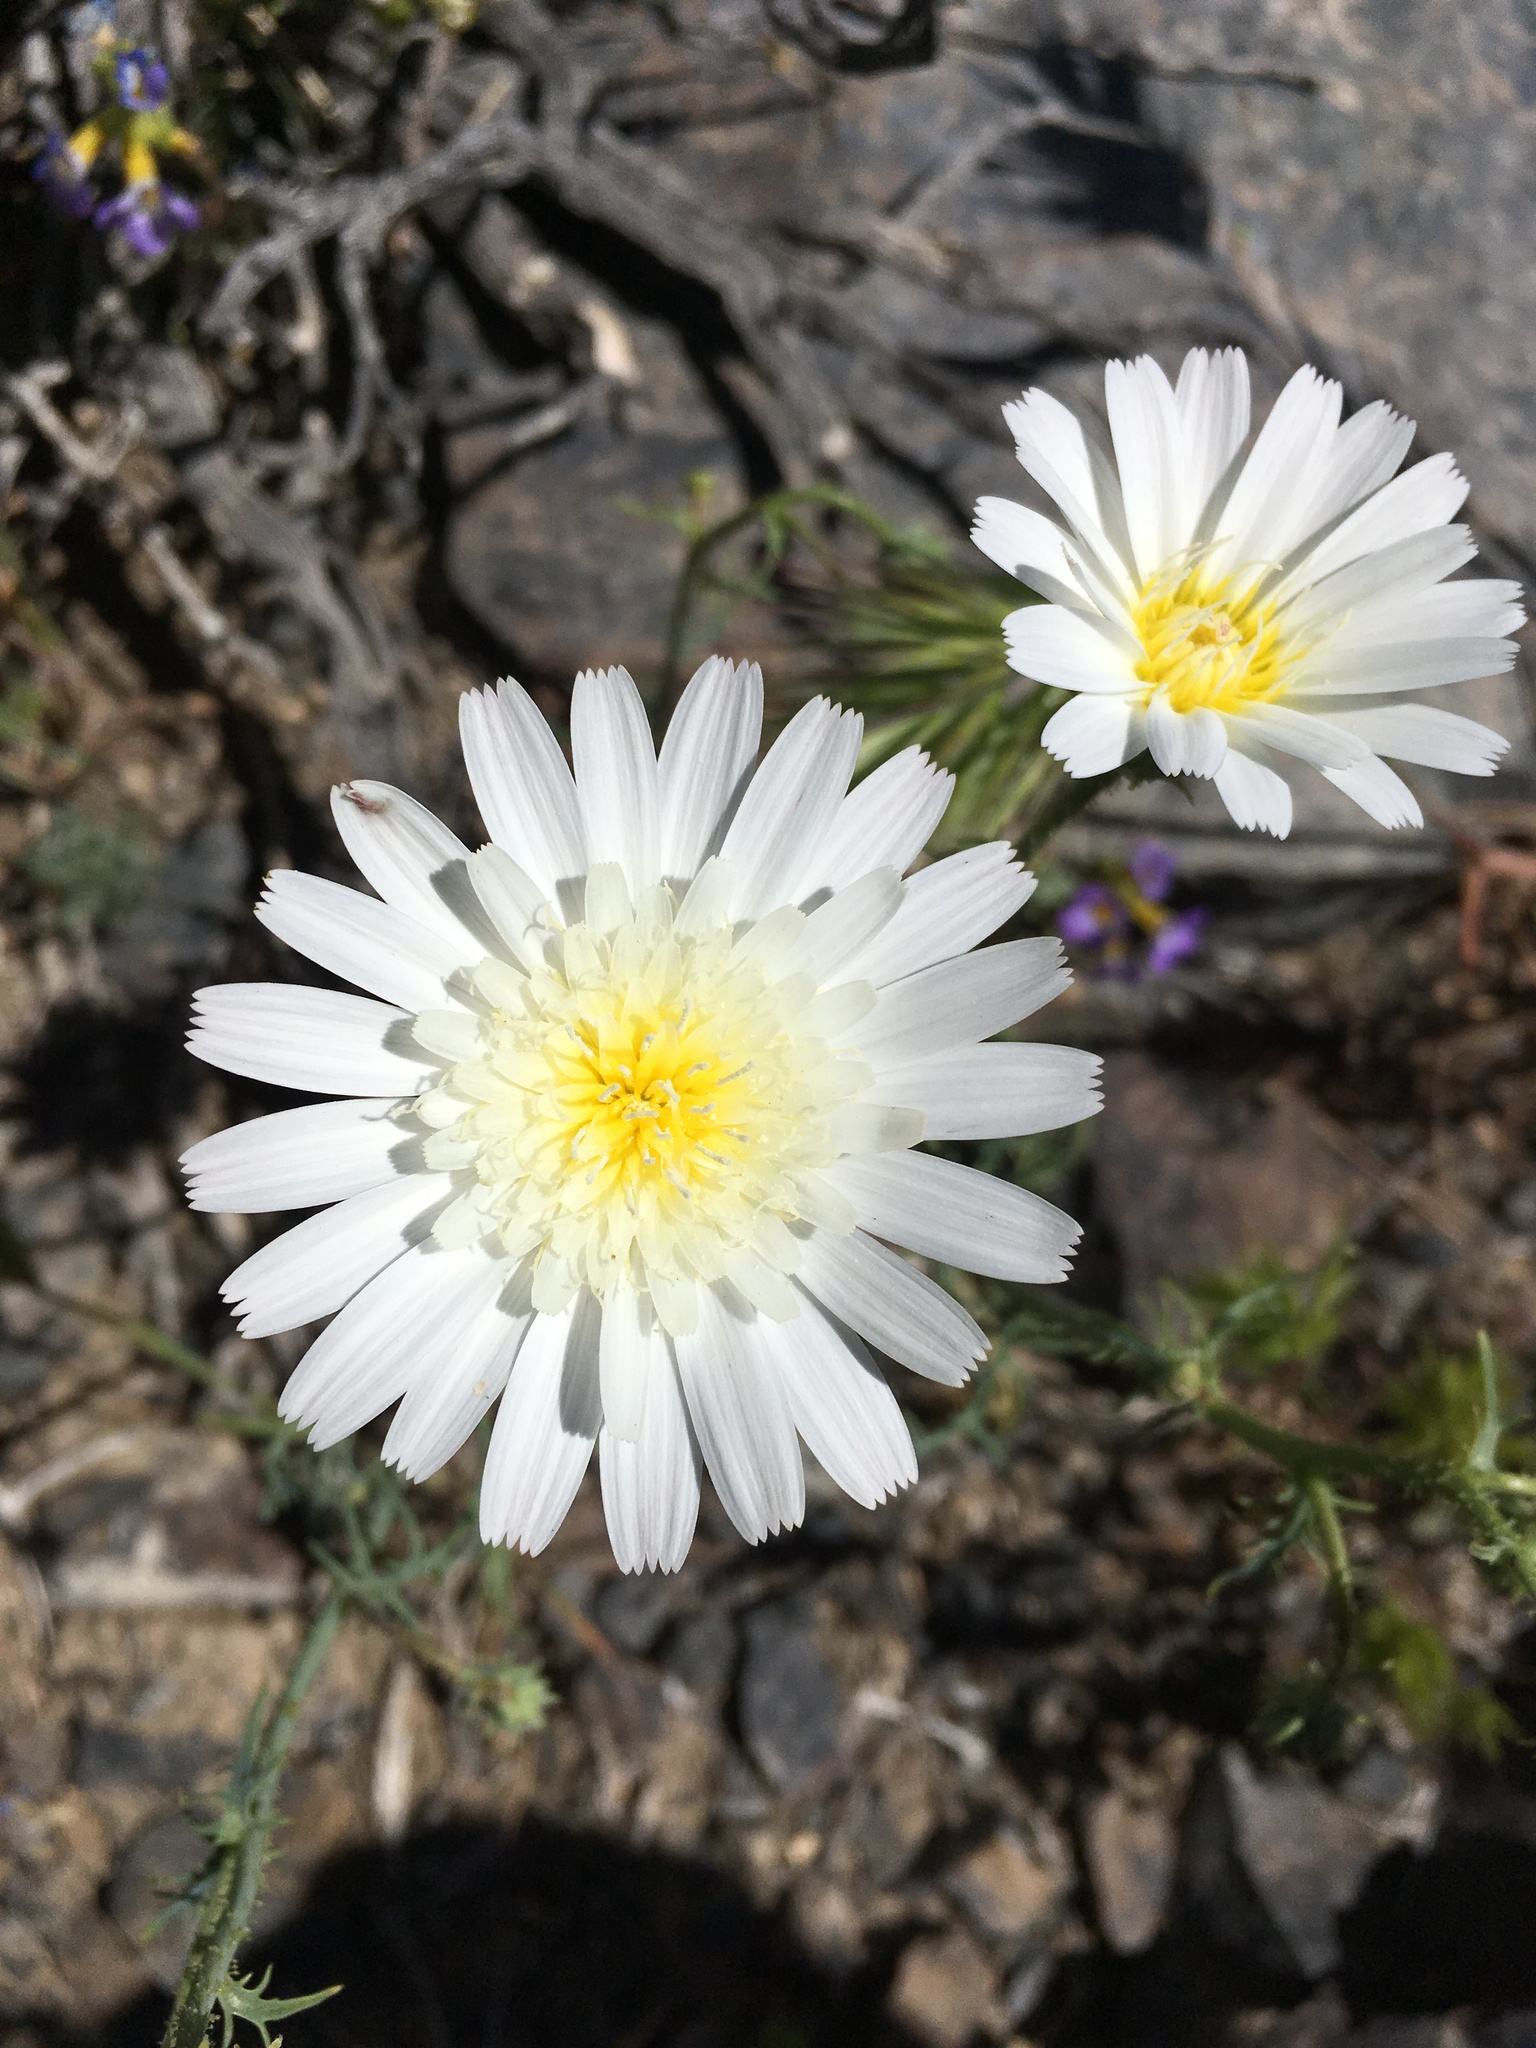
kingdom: Plantae
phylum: Tracheophyta
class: Magnoliopsida
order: Asterales
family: Asteraceae
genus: Calycoseris
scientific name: Calycoseris wrightii
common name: White tackstem
